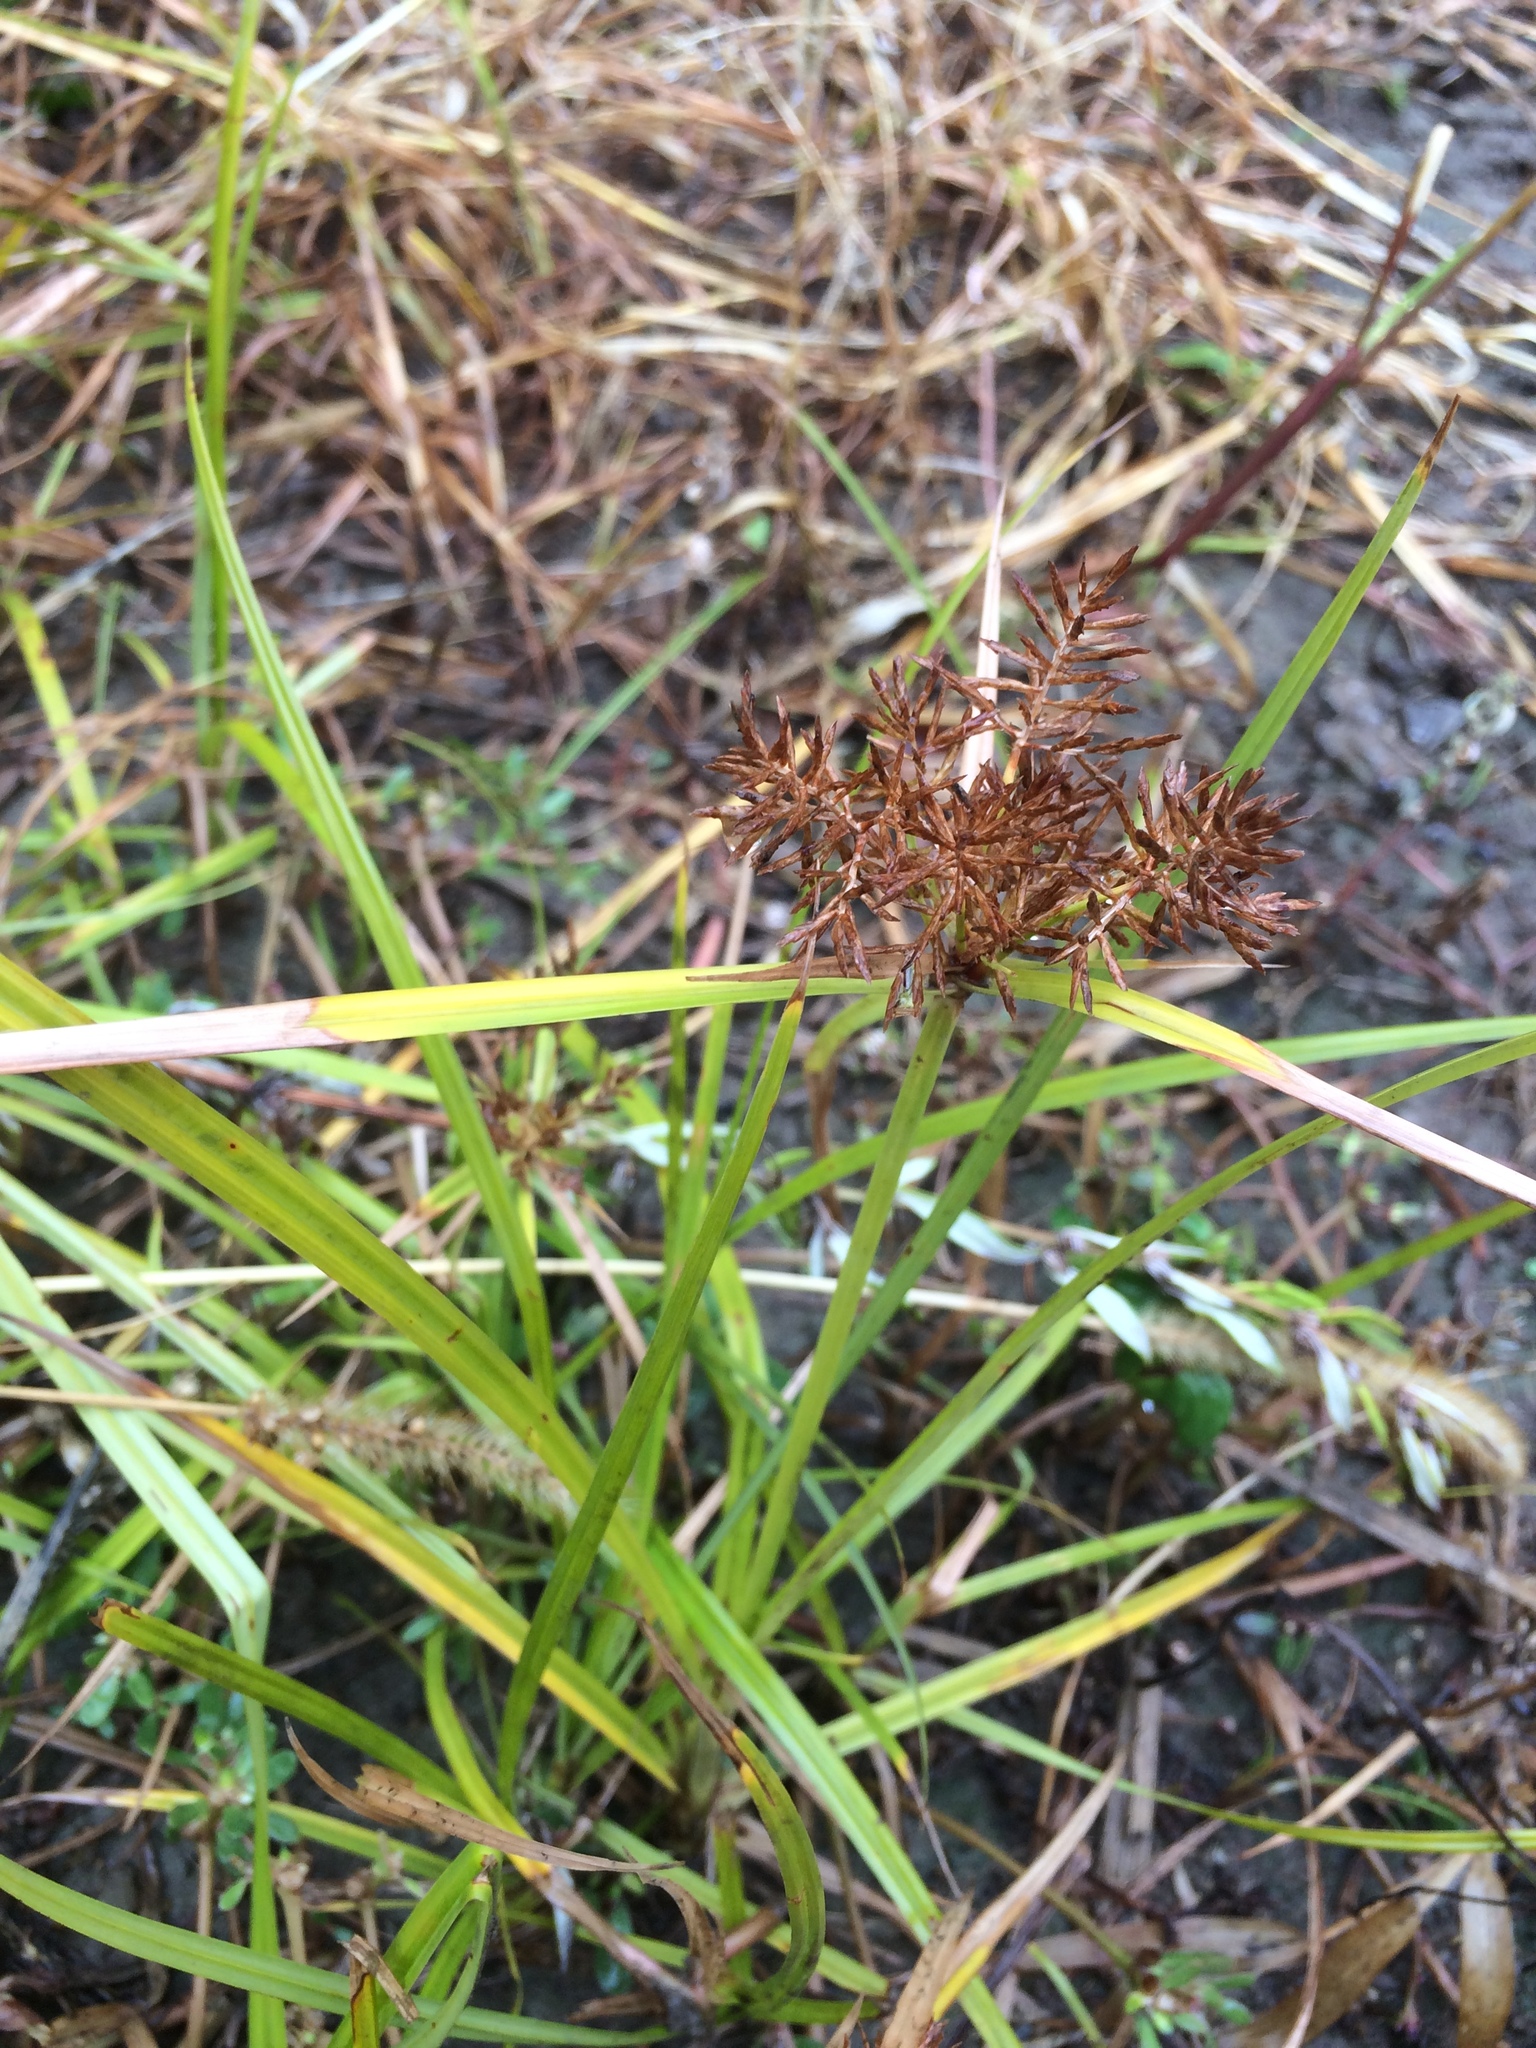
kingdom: Plantae
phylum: Tracheophyta
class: Liliopsida
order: Poales
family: Cyperaceae
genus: Cyperus
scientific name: Cyperus esculentus
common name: Yellow nutsedge
